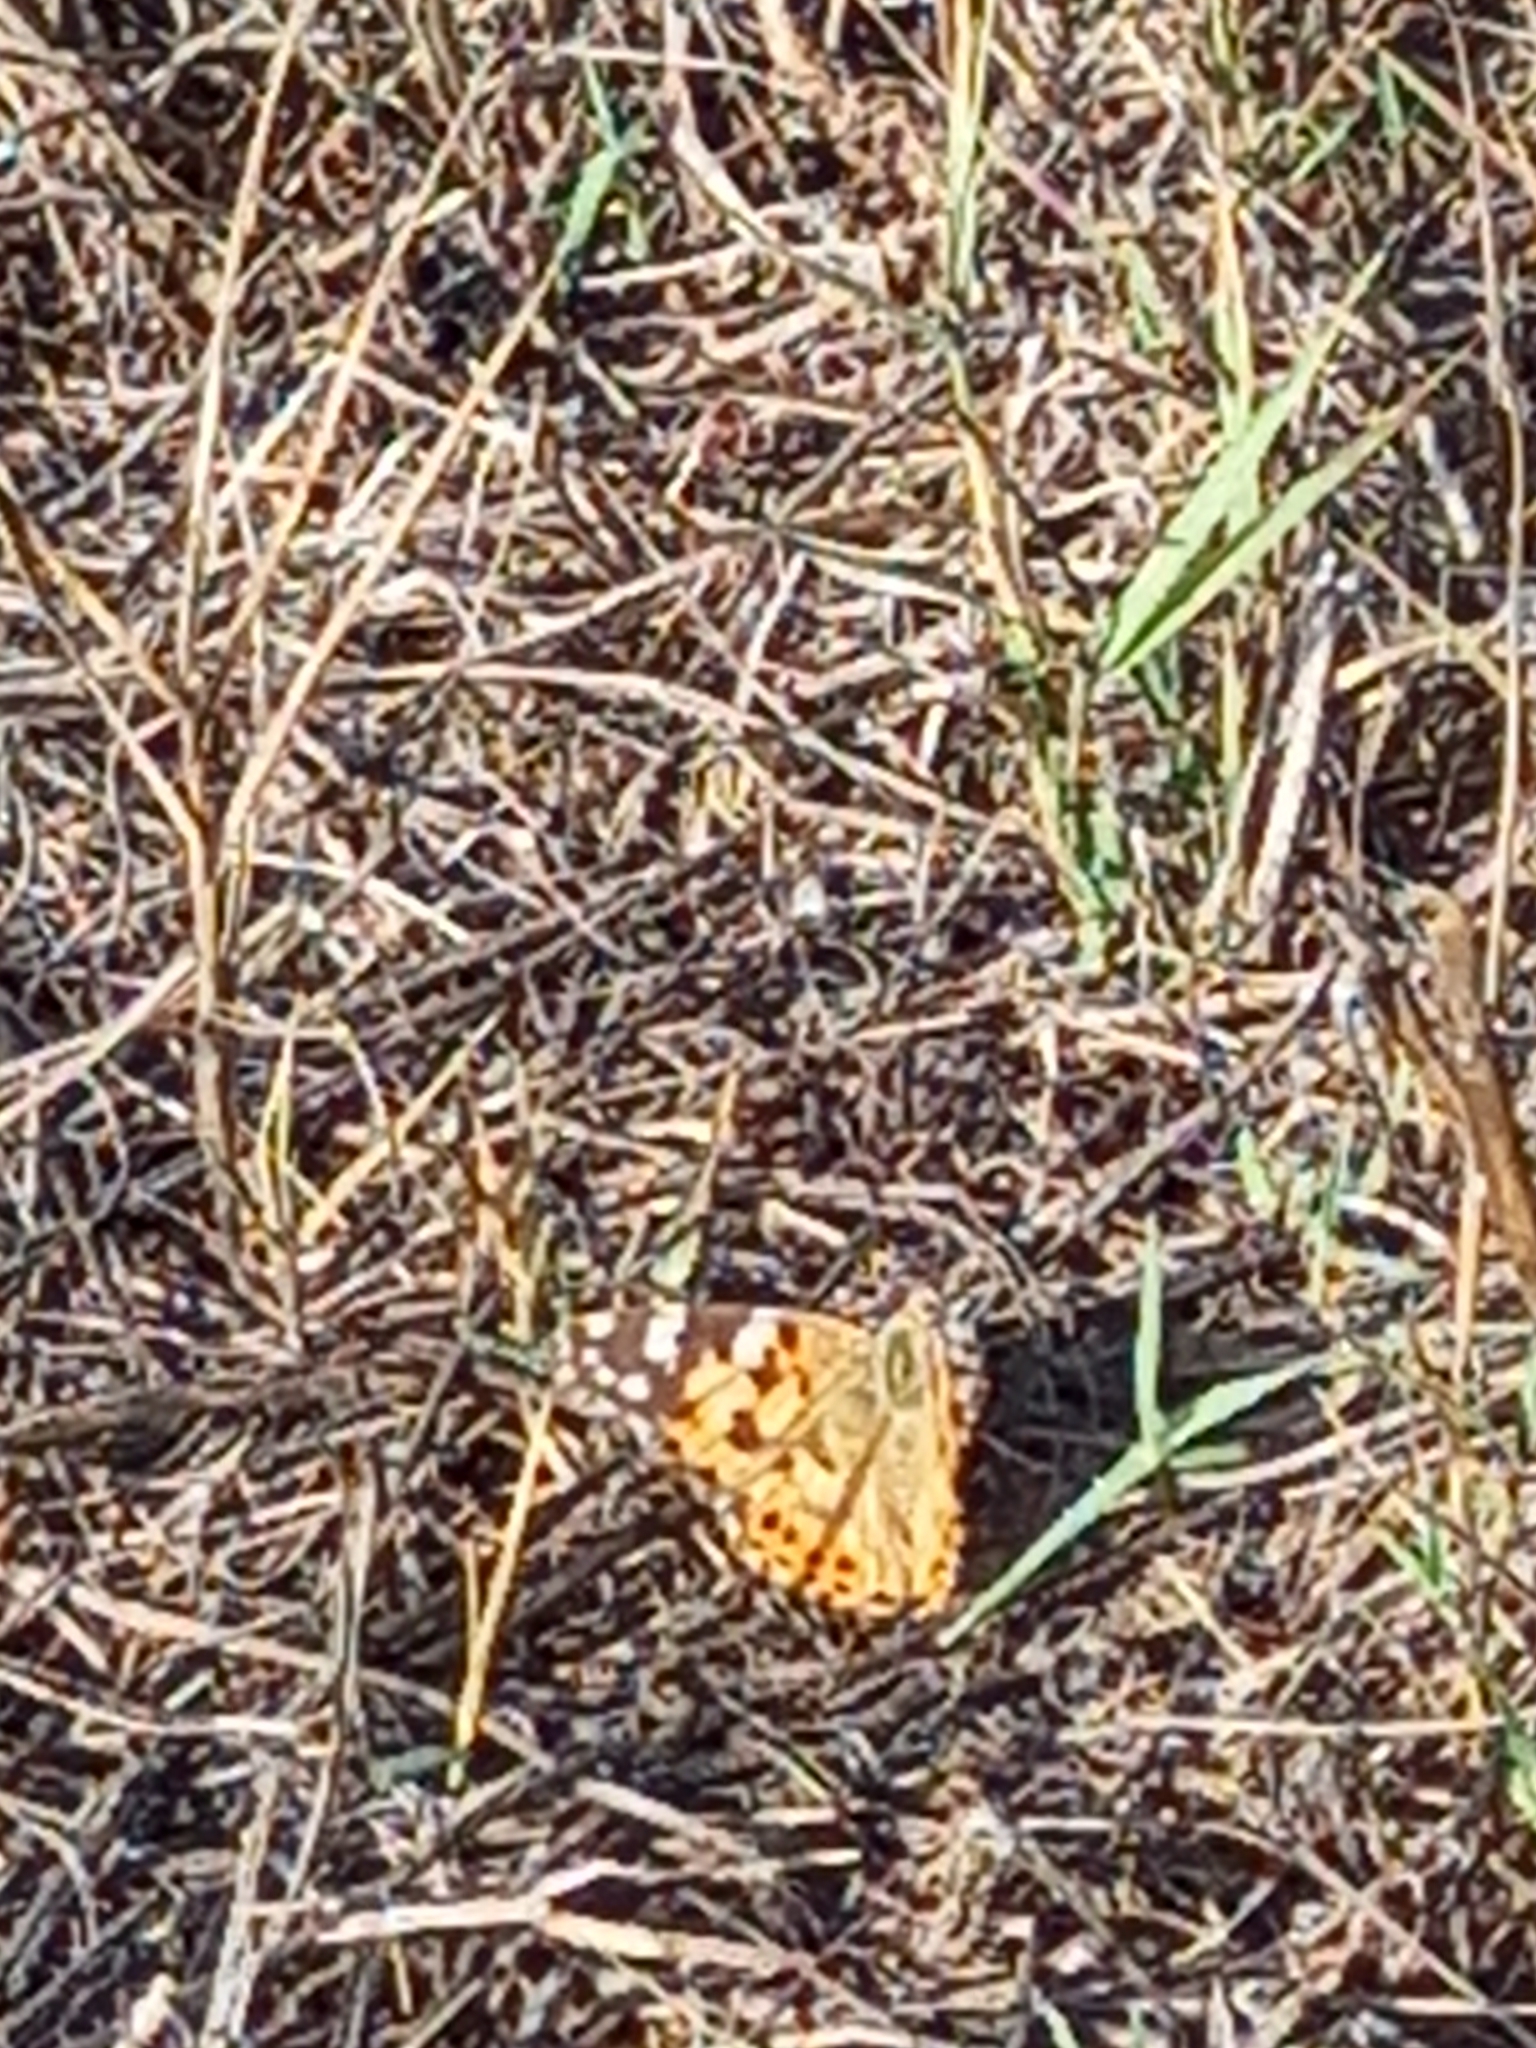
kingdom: Animalia
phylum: Arthropoda
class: Insecta
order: Lepidoptera
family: Nymphalidae
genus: Vanessa
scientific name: Vanessa cardui
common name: Painted lady
